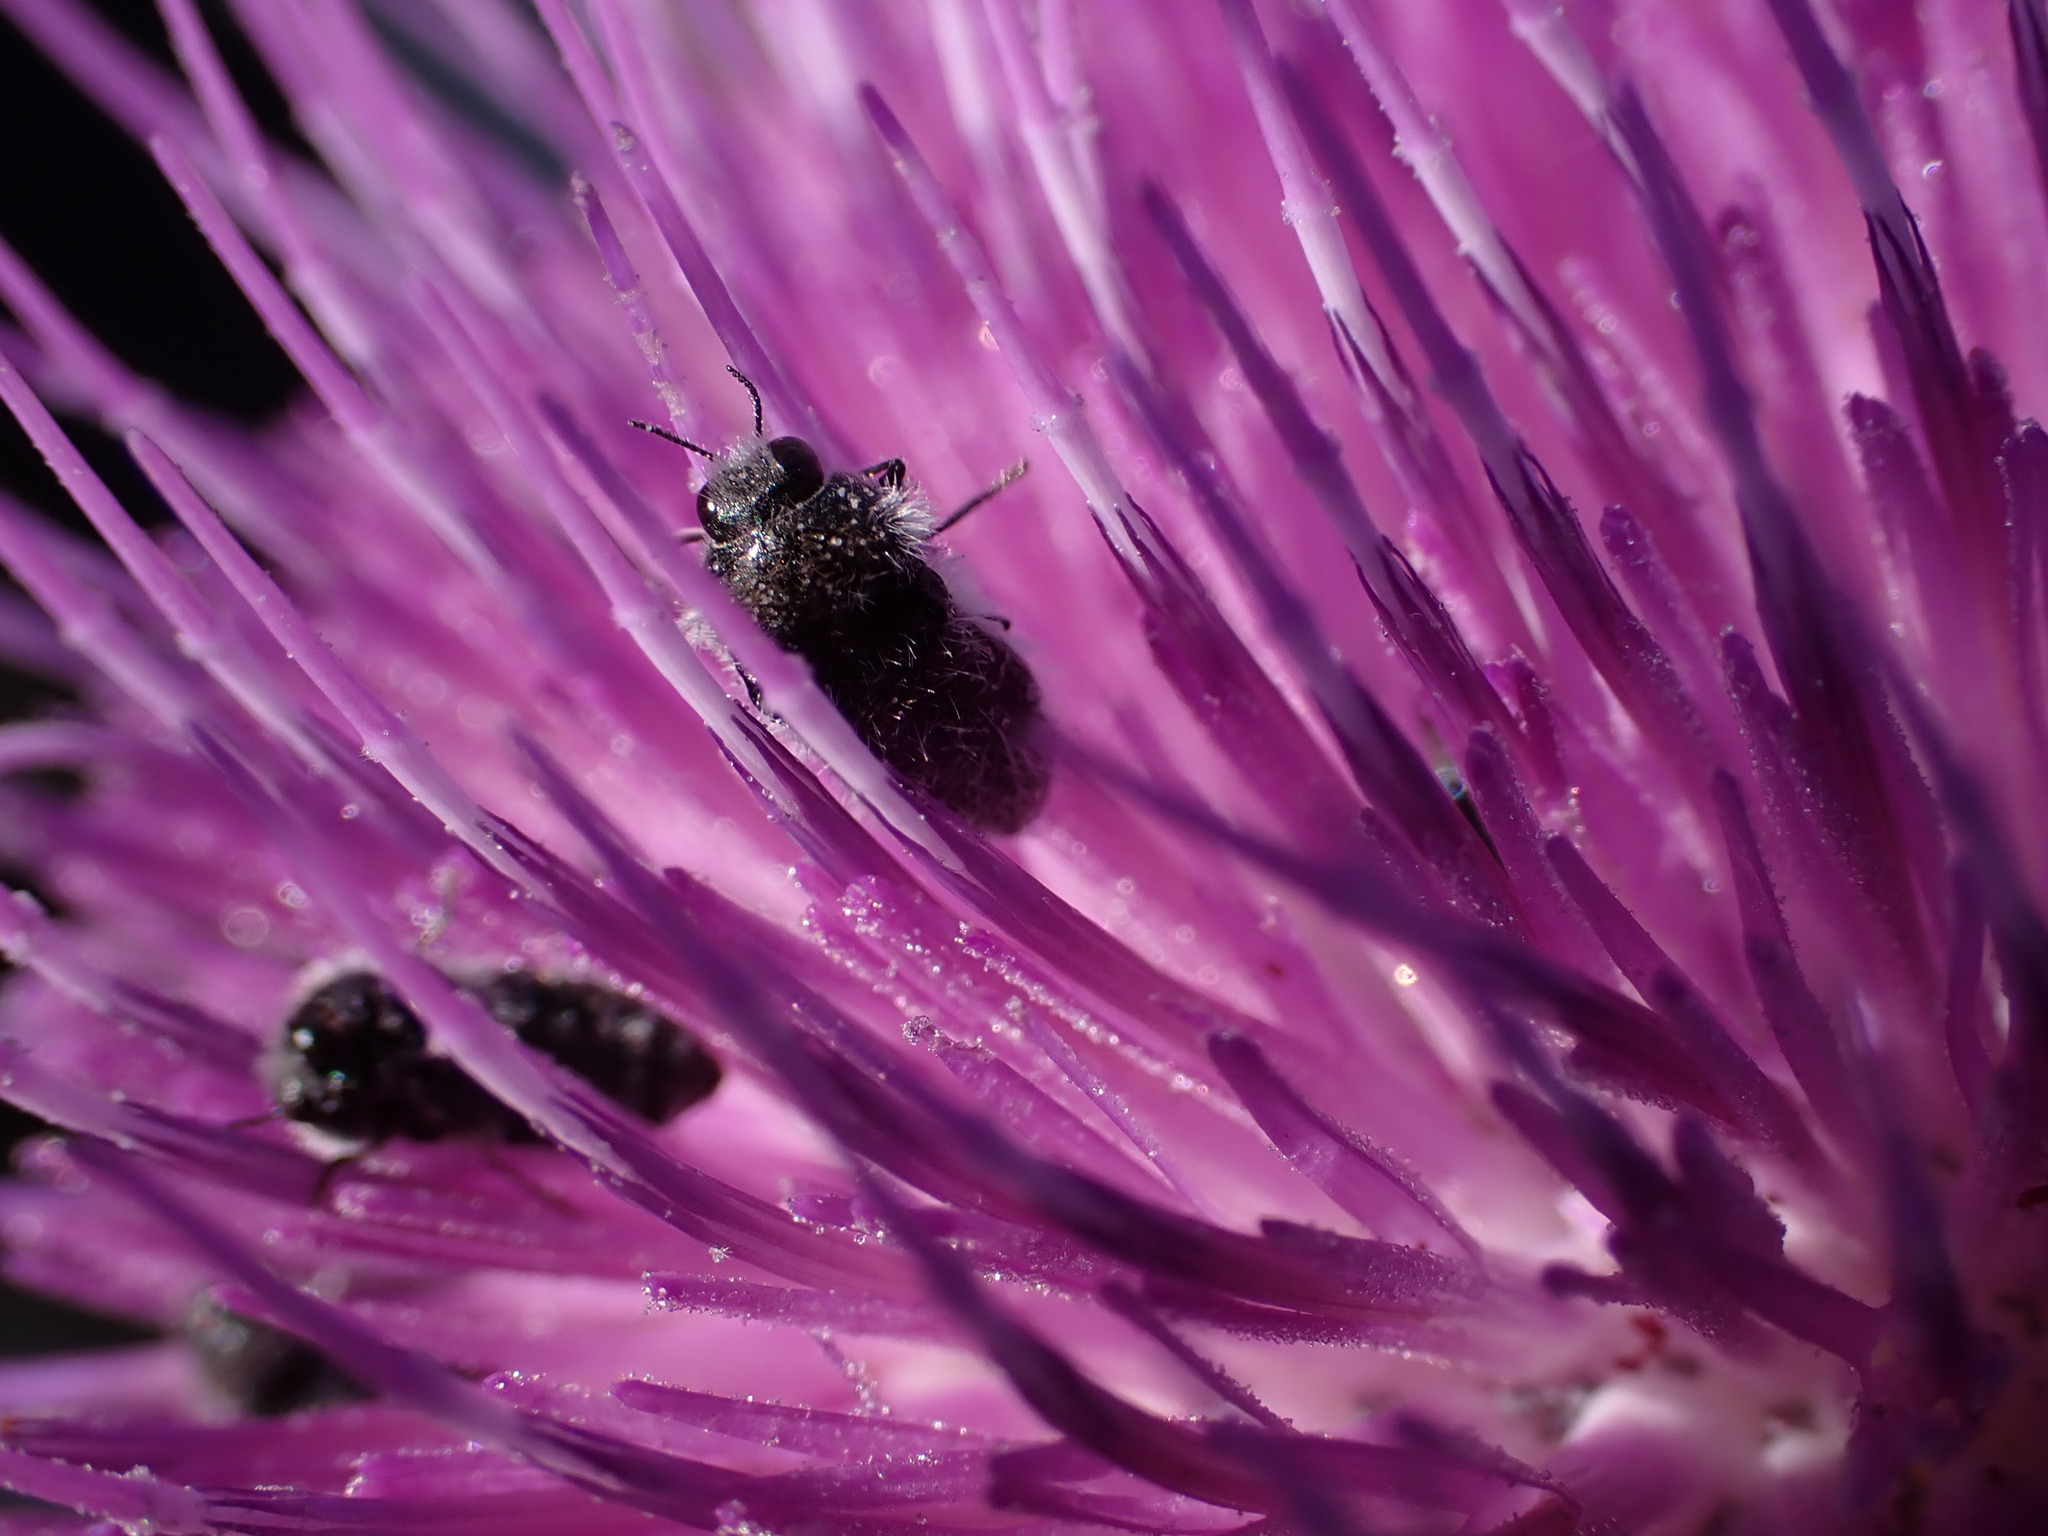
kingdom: Animalia
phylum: Arthropoda
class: Insecta
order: Coleoptera
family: Buprestidae
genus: Acmaeoderella
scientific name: Acmaeoderella perroti
